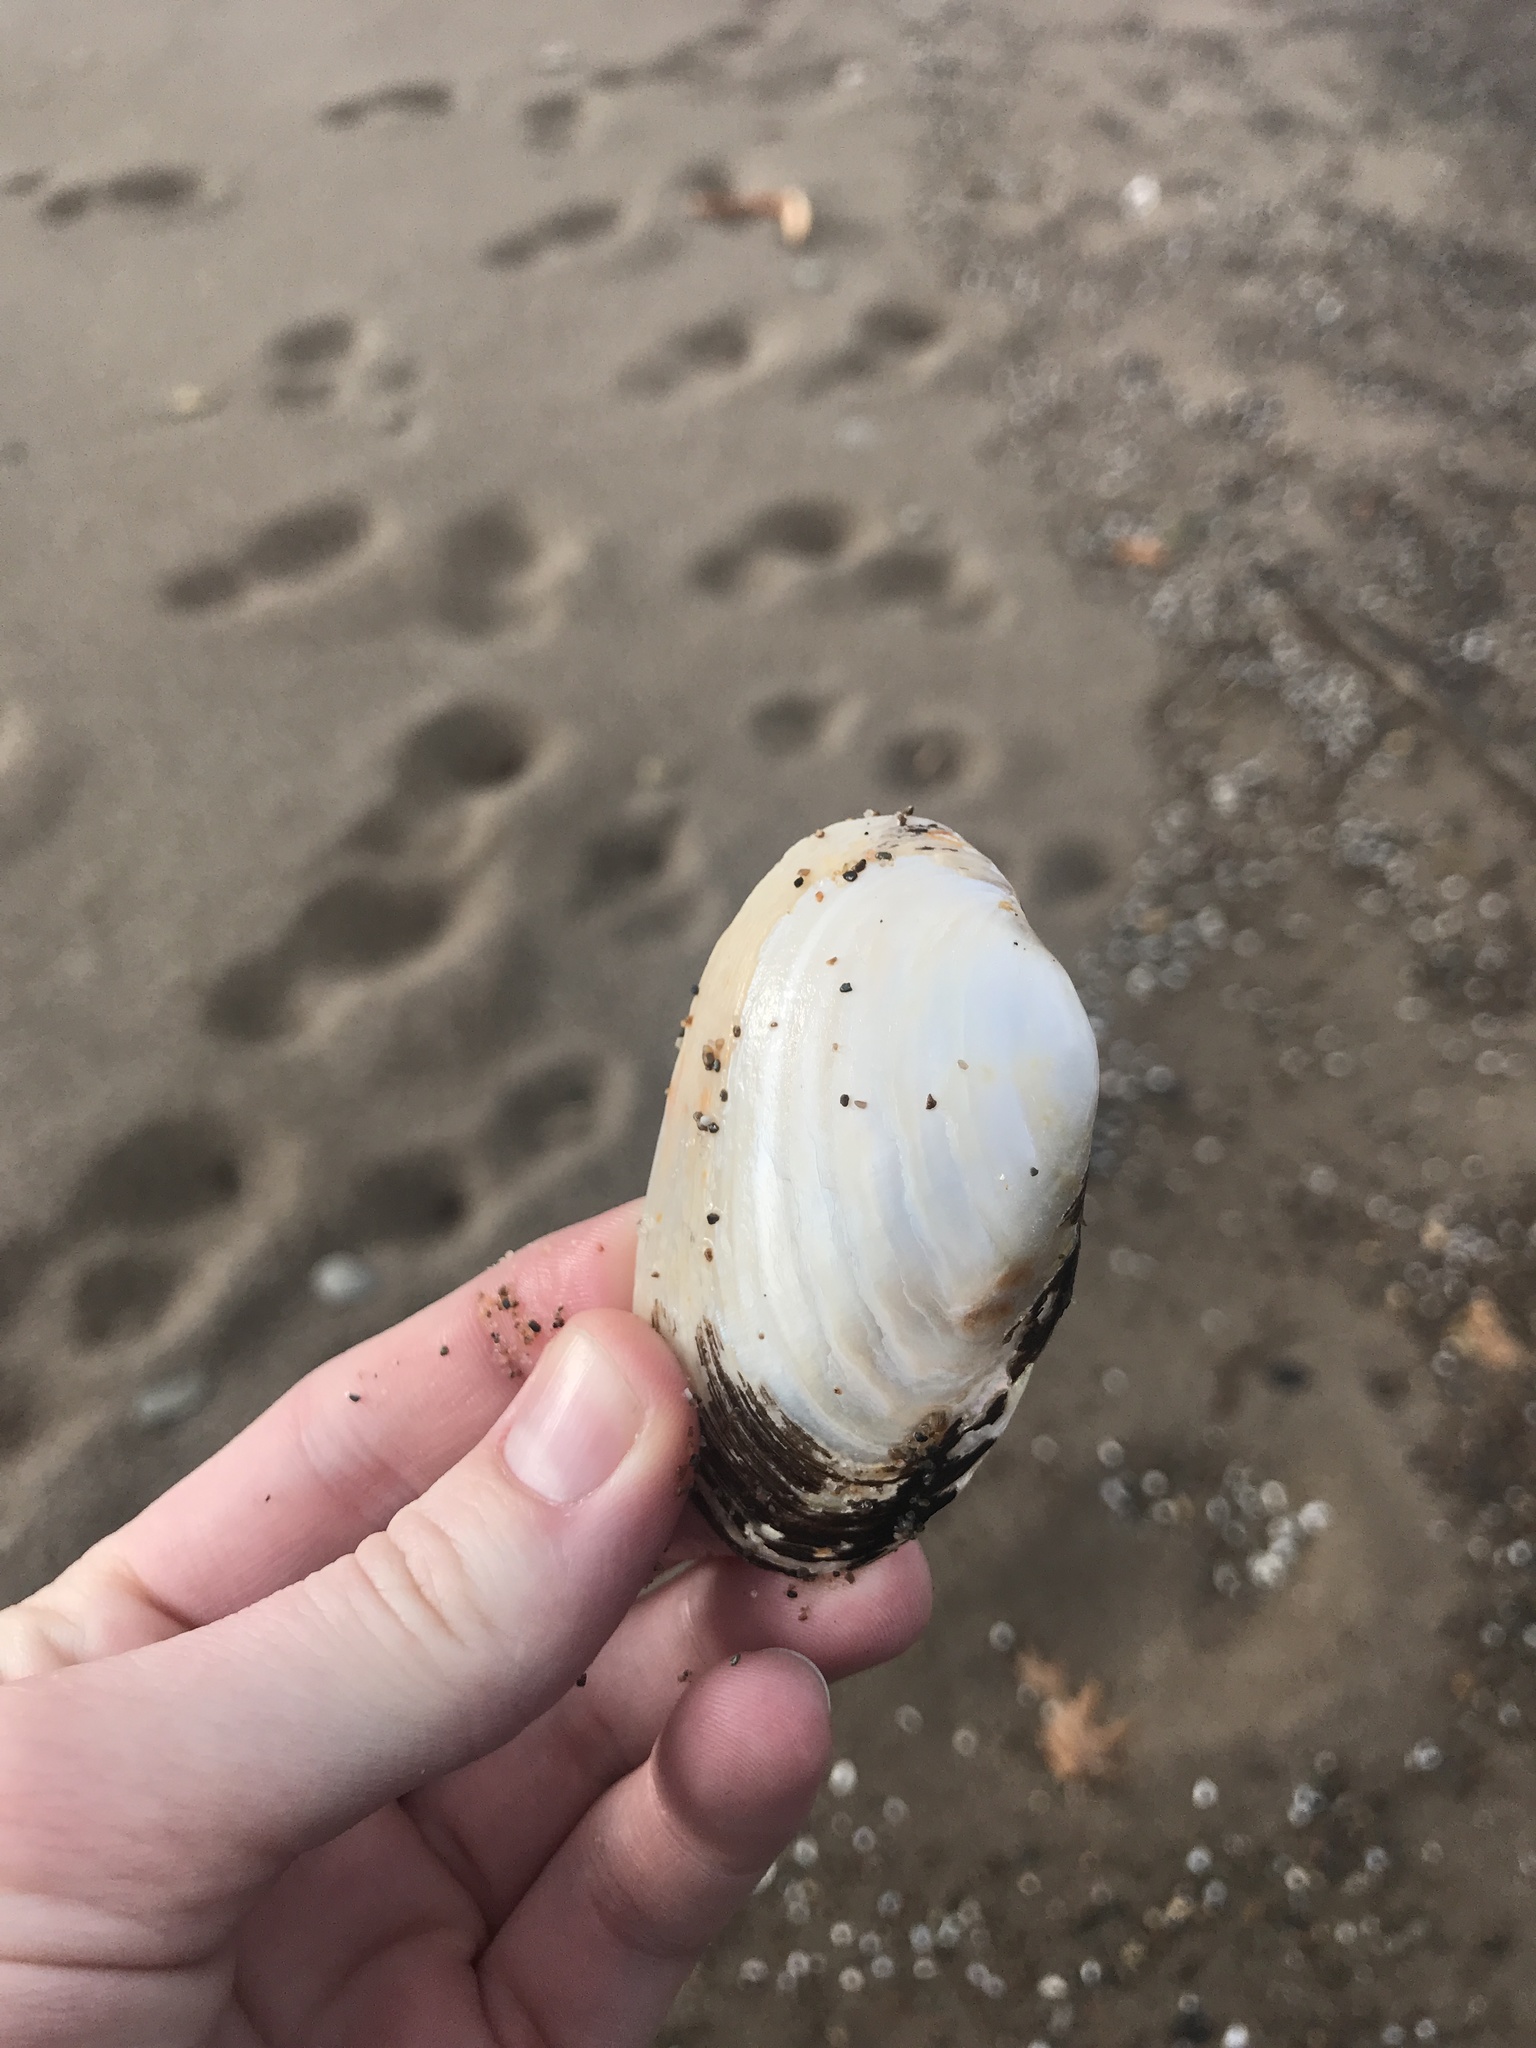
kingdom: Animalia
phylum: Mollusca
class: Bivalvia
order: Unionida
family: Unionidae
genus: Lampsilis
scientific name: Lampsilis siliquoidea
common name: Fatmucket
